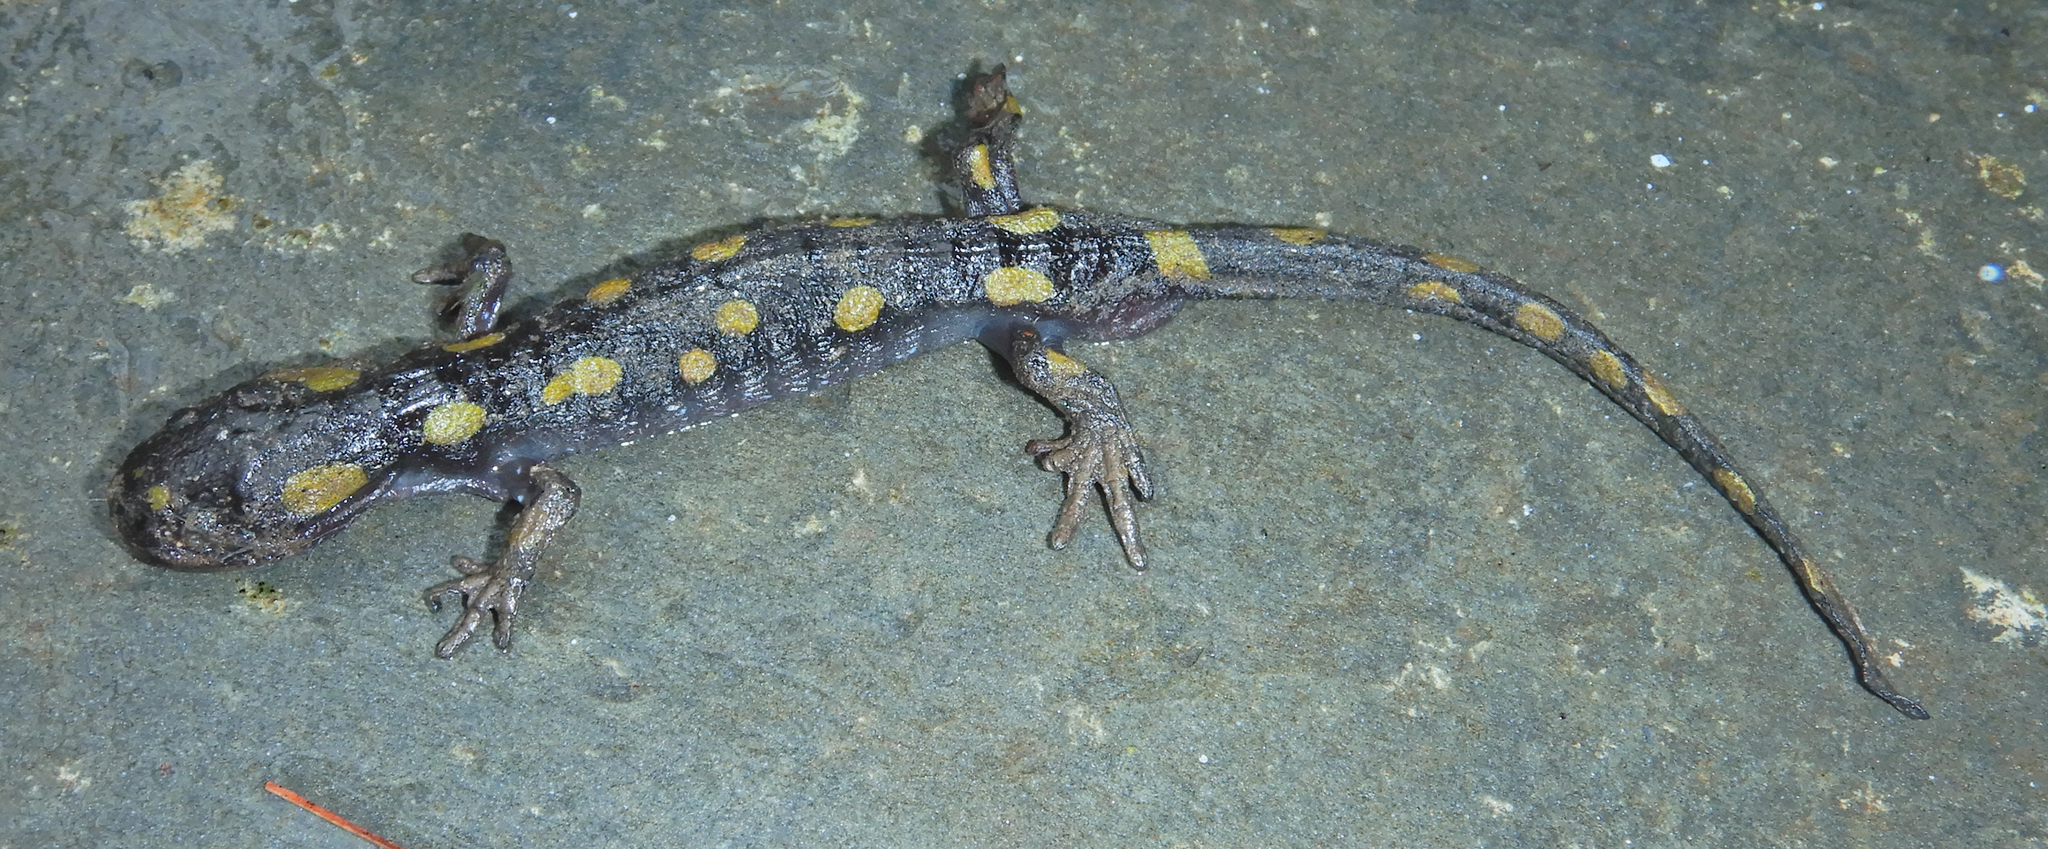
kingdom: Animalia
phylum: Chordata
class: Amphibia
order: Caudata
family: Ambystomatidae
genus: Ambystoma
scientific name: Ambystoma maculatum
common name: Spotted salamander
